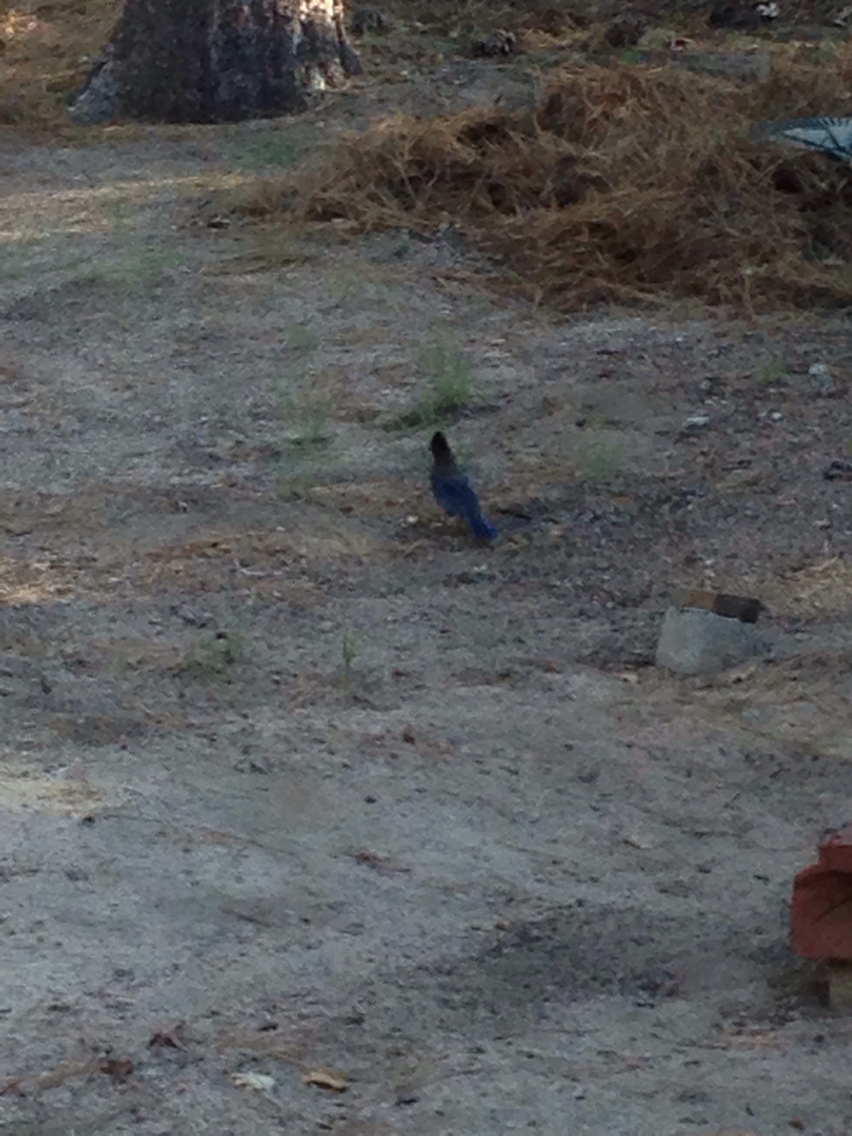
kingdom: Animalia
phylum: Chordata
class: Aves
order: Passeriformes
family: Corvidae
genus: Cyanocitta
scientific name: Cyanocitta stelleri
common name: Steller's jay
